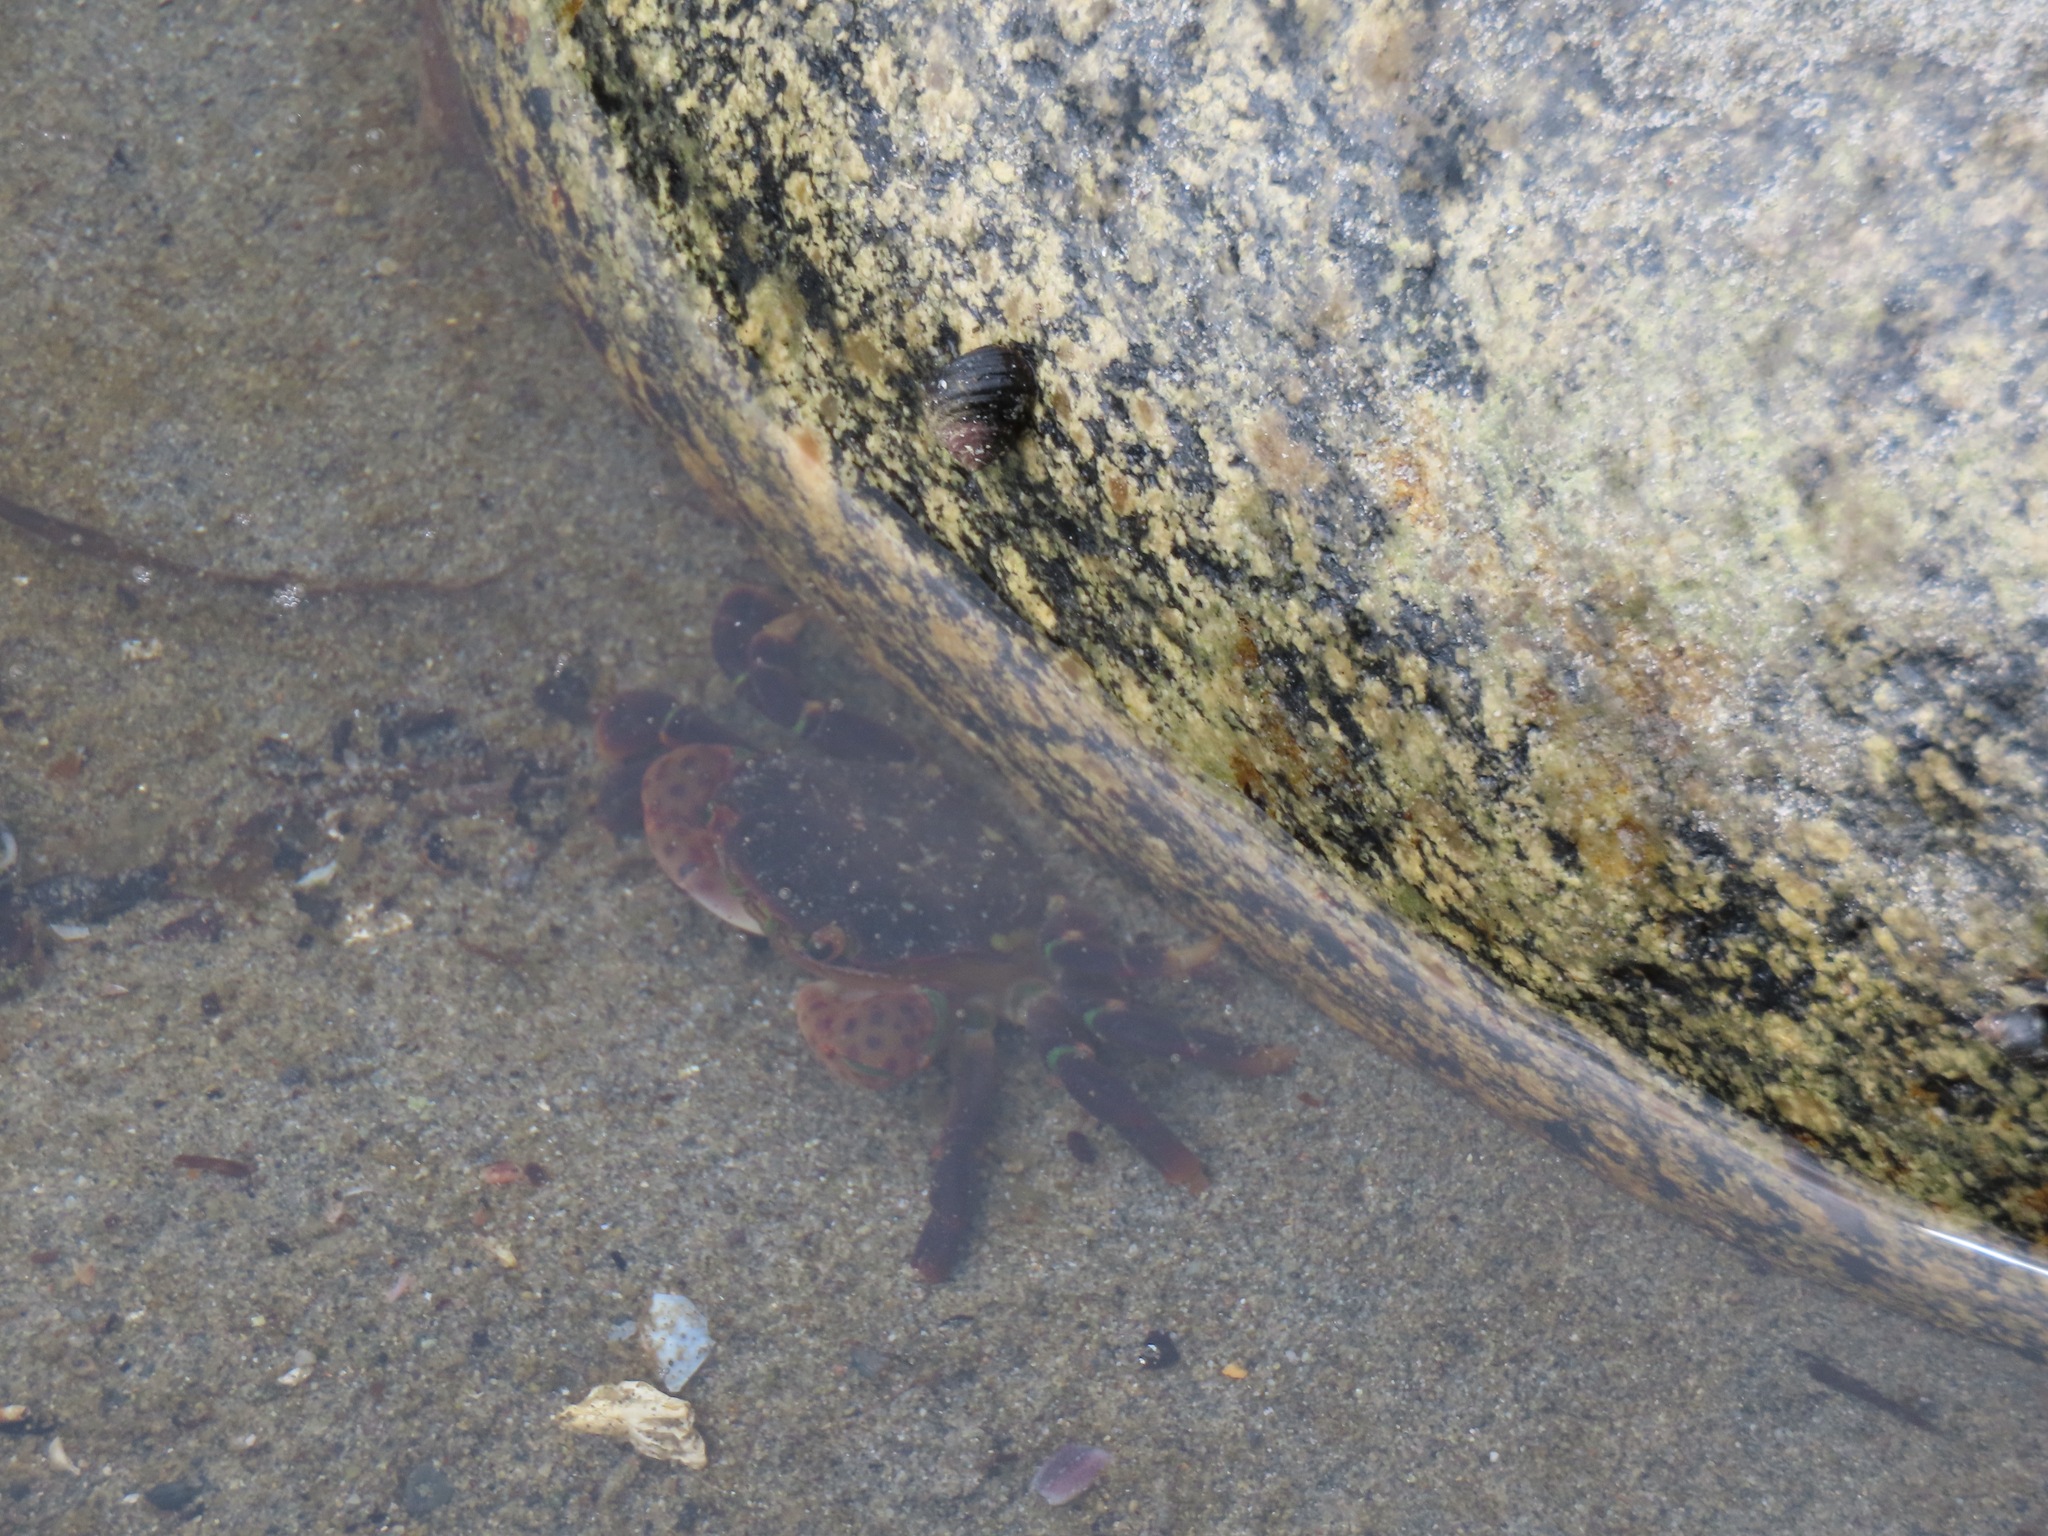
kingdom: Animalia
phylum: Arthropoda
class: Malacostraca
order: Decapoda
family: Varunidae
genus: Hemigrapsus
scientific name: Hemigrapsus nudus
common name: Purple shore crab
